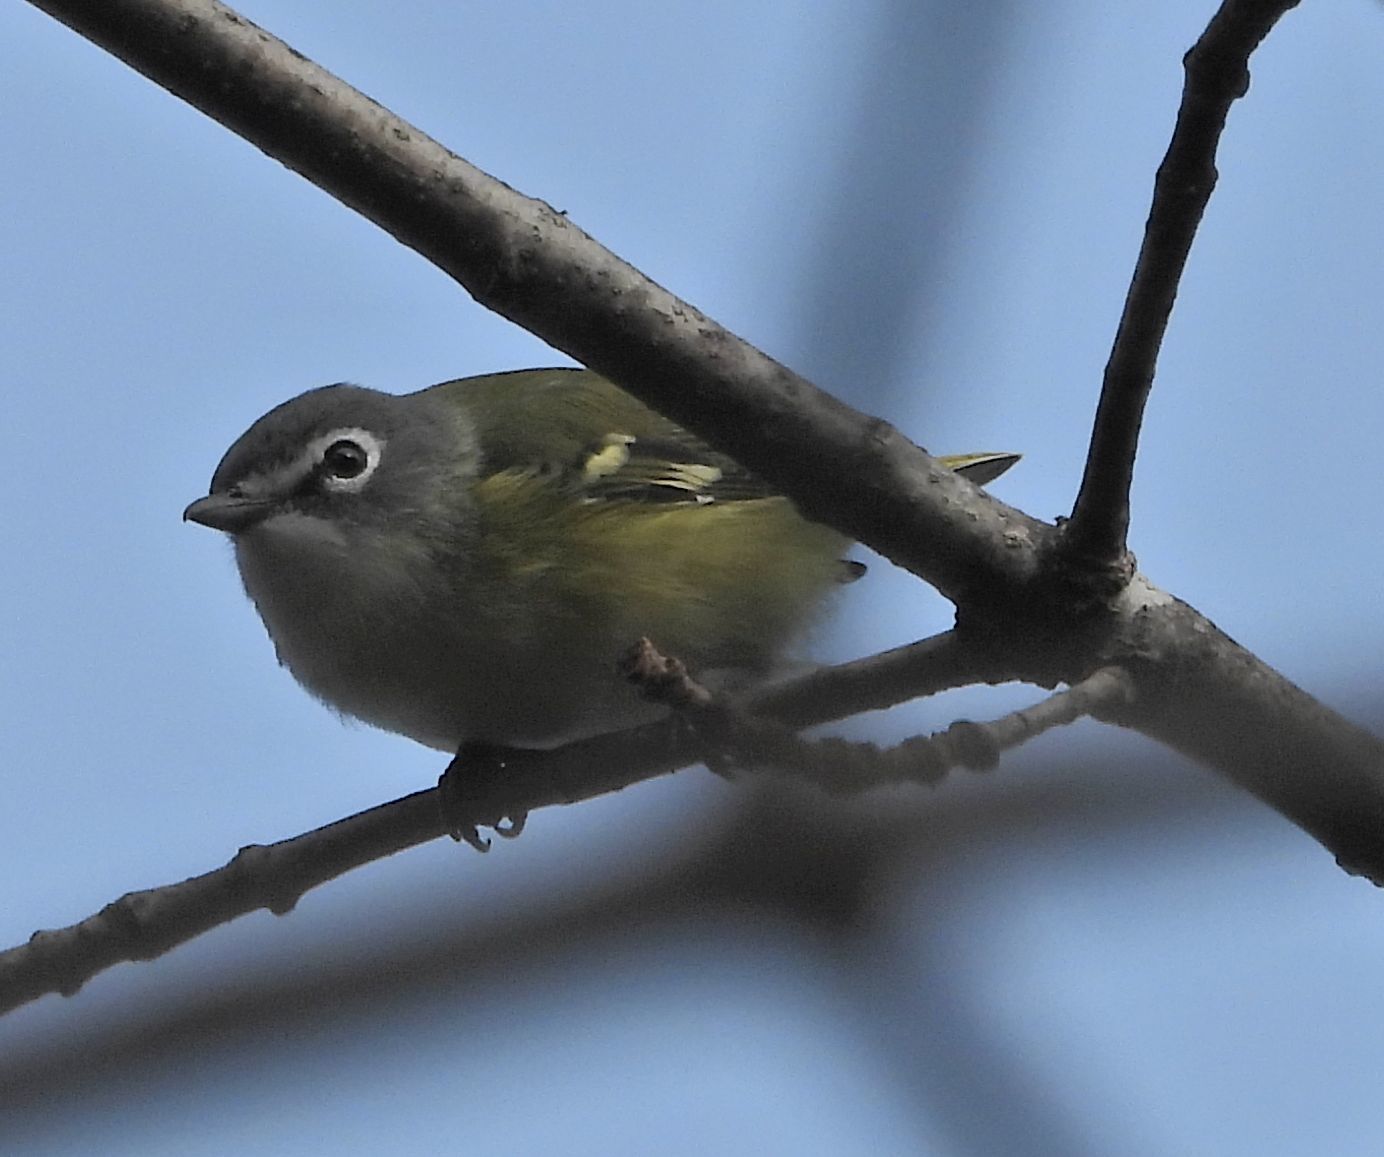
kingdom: Animalia
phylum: Chordata
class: Aves
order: Passeriformes
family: Vireonidae
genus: Vireo
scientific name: Vireo solitarius
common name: Blue-headed vireo
